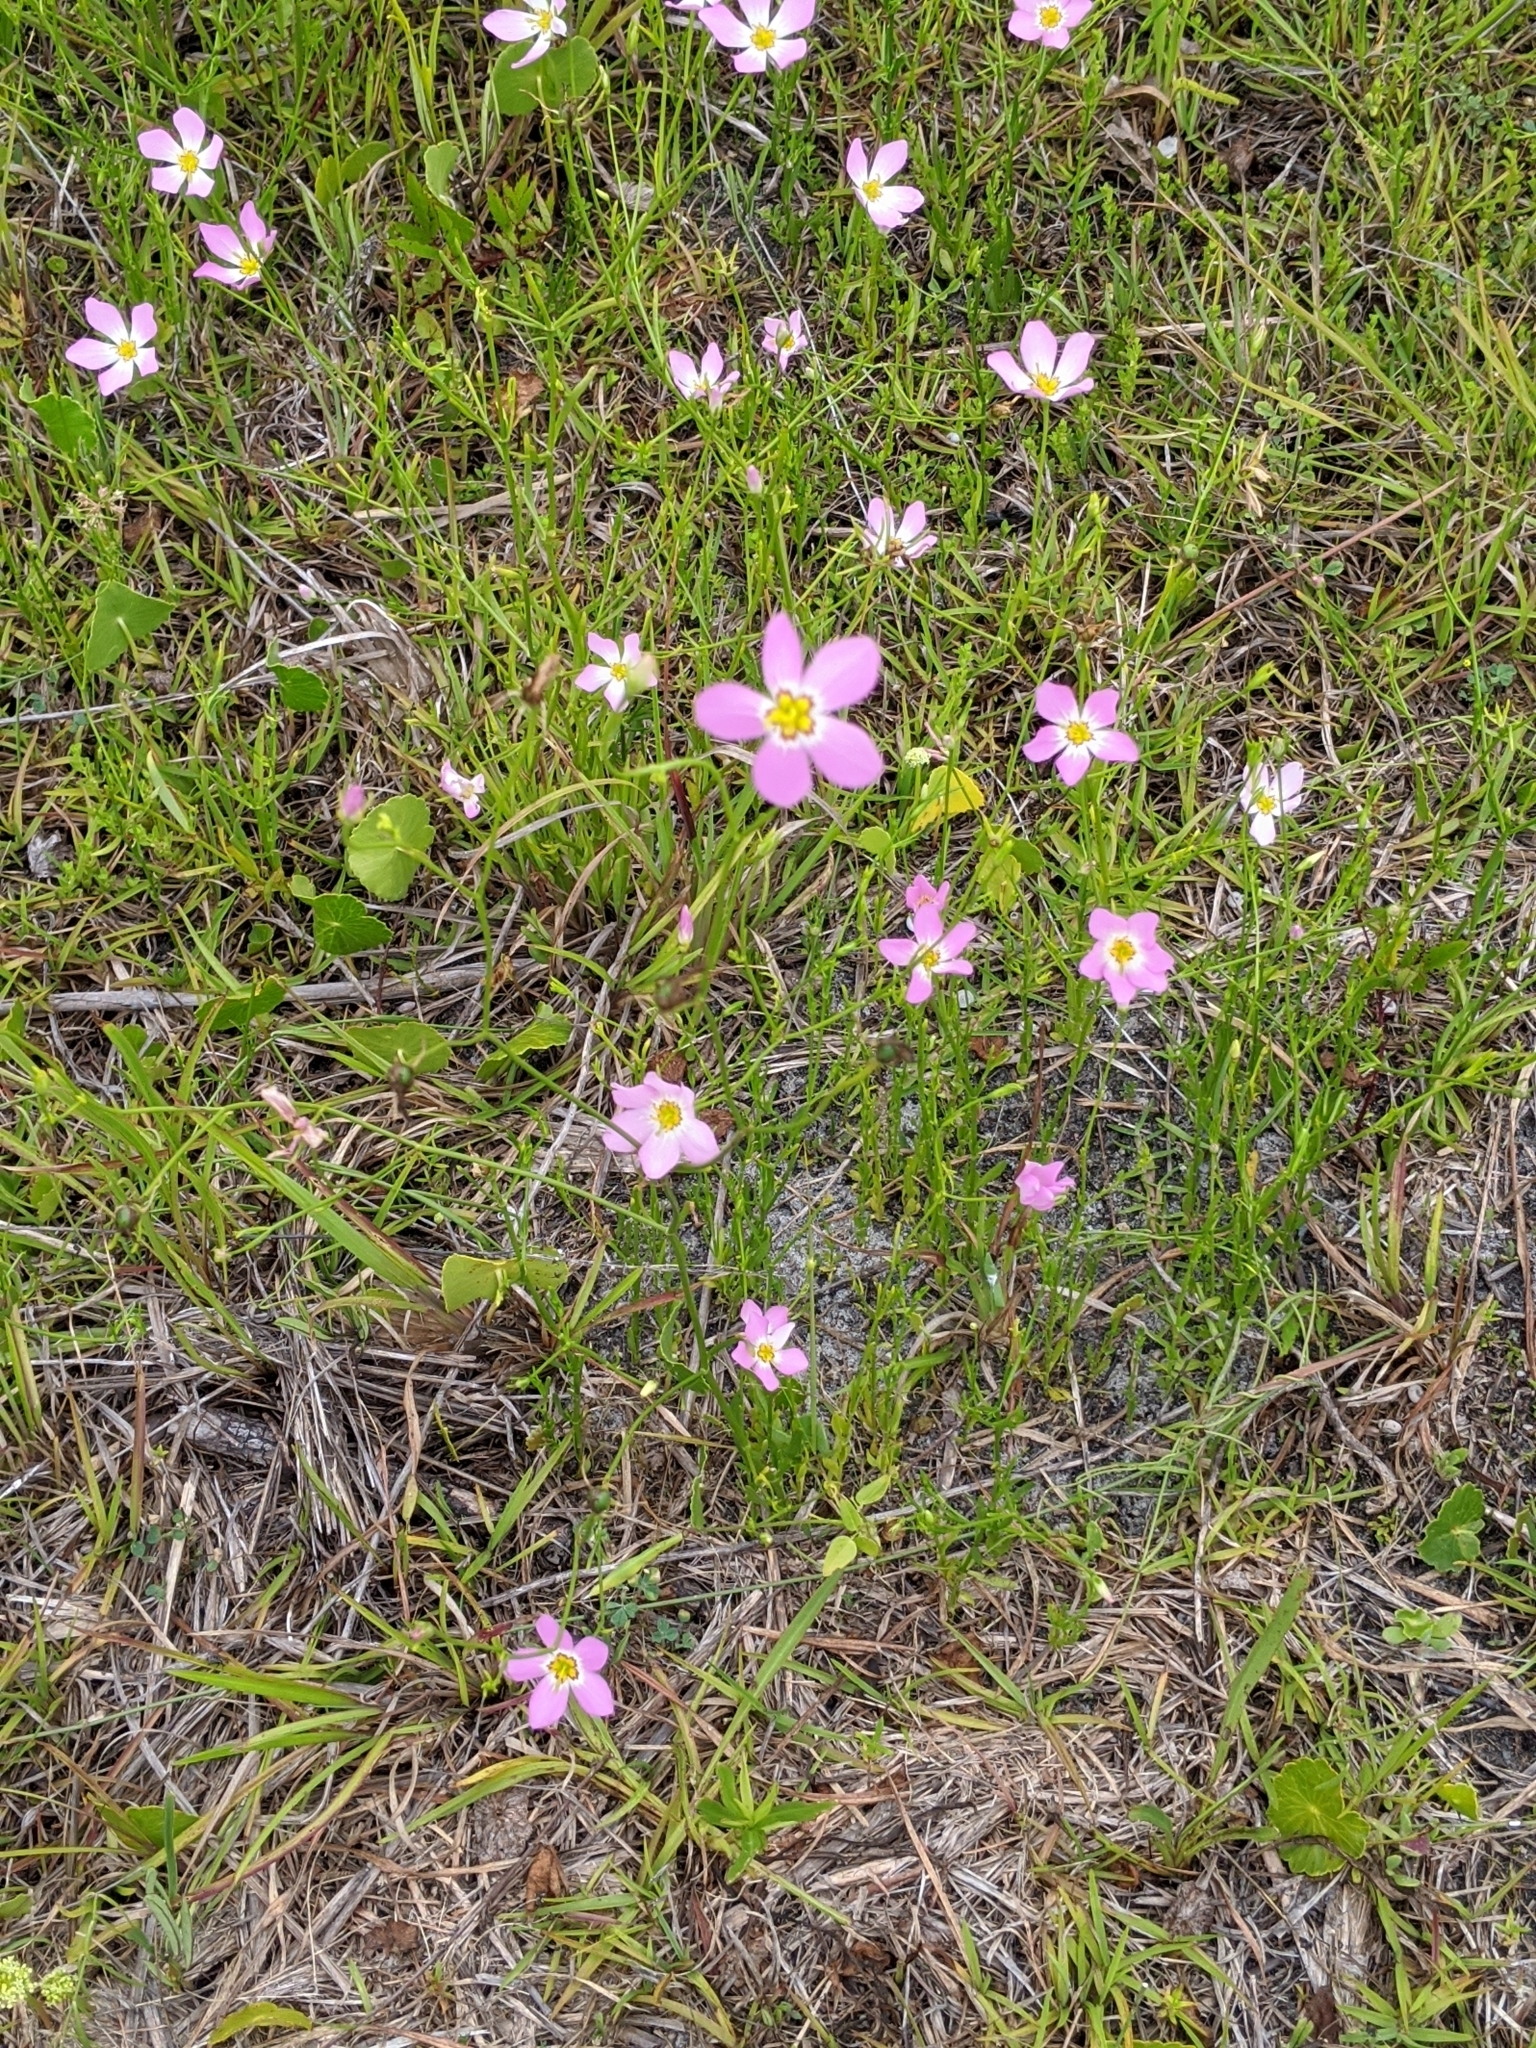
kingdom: Plantae
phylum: Tracheophyta
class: Magnoliopsida
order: Gentianales
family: Gentianaceae
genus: Sabatia
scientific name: Sabatia stellaris
